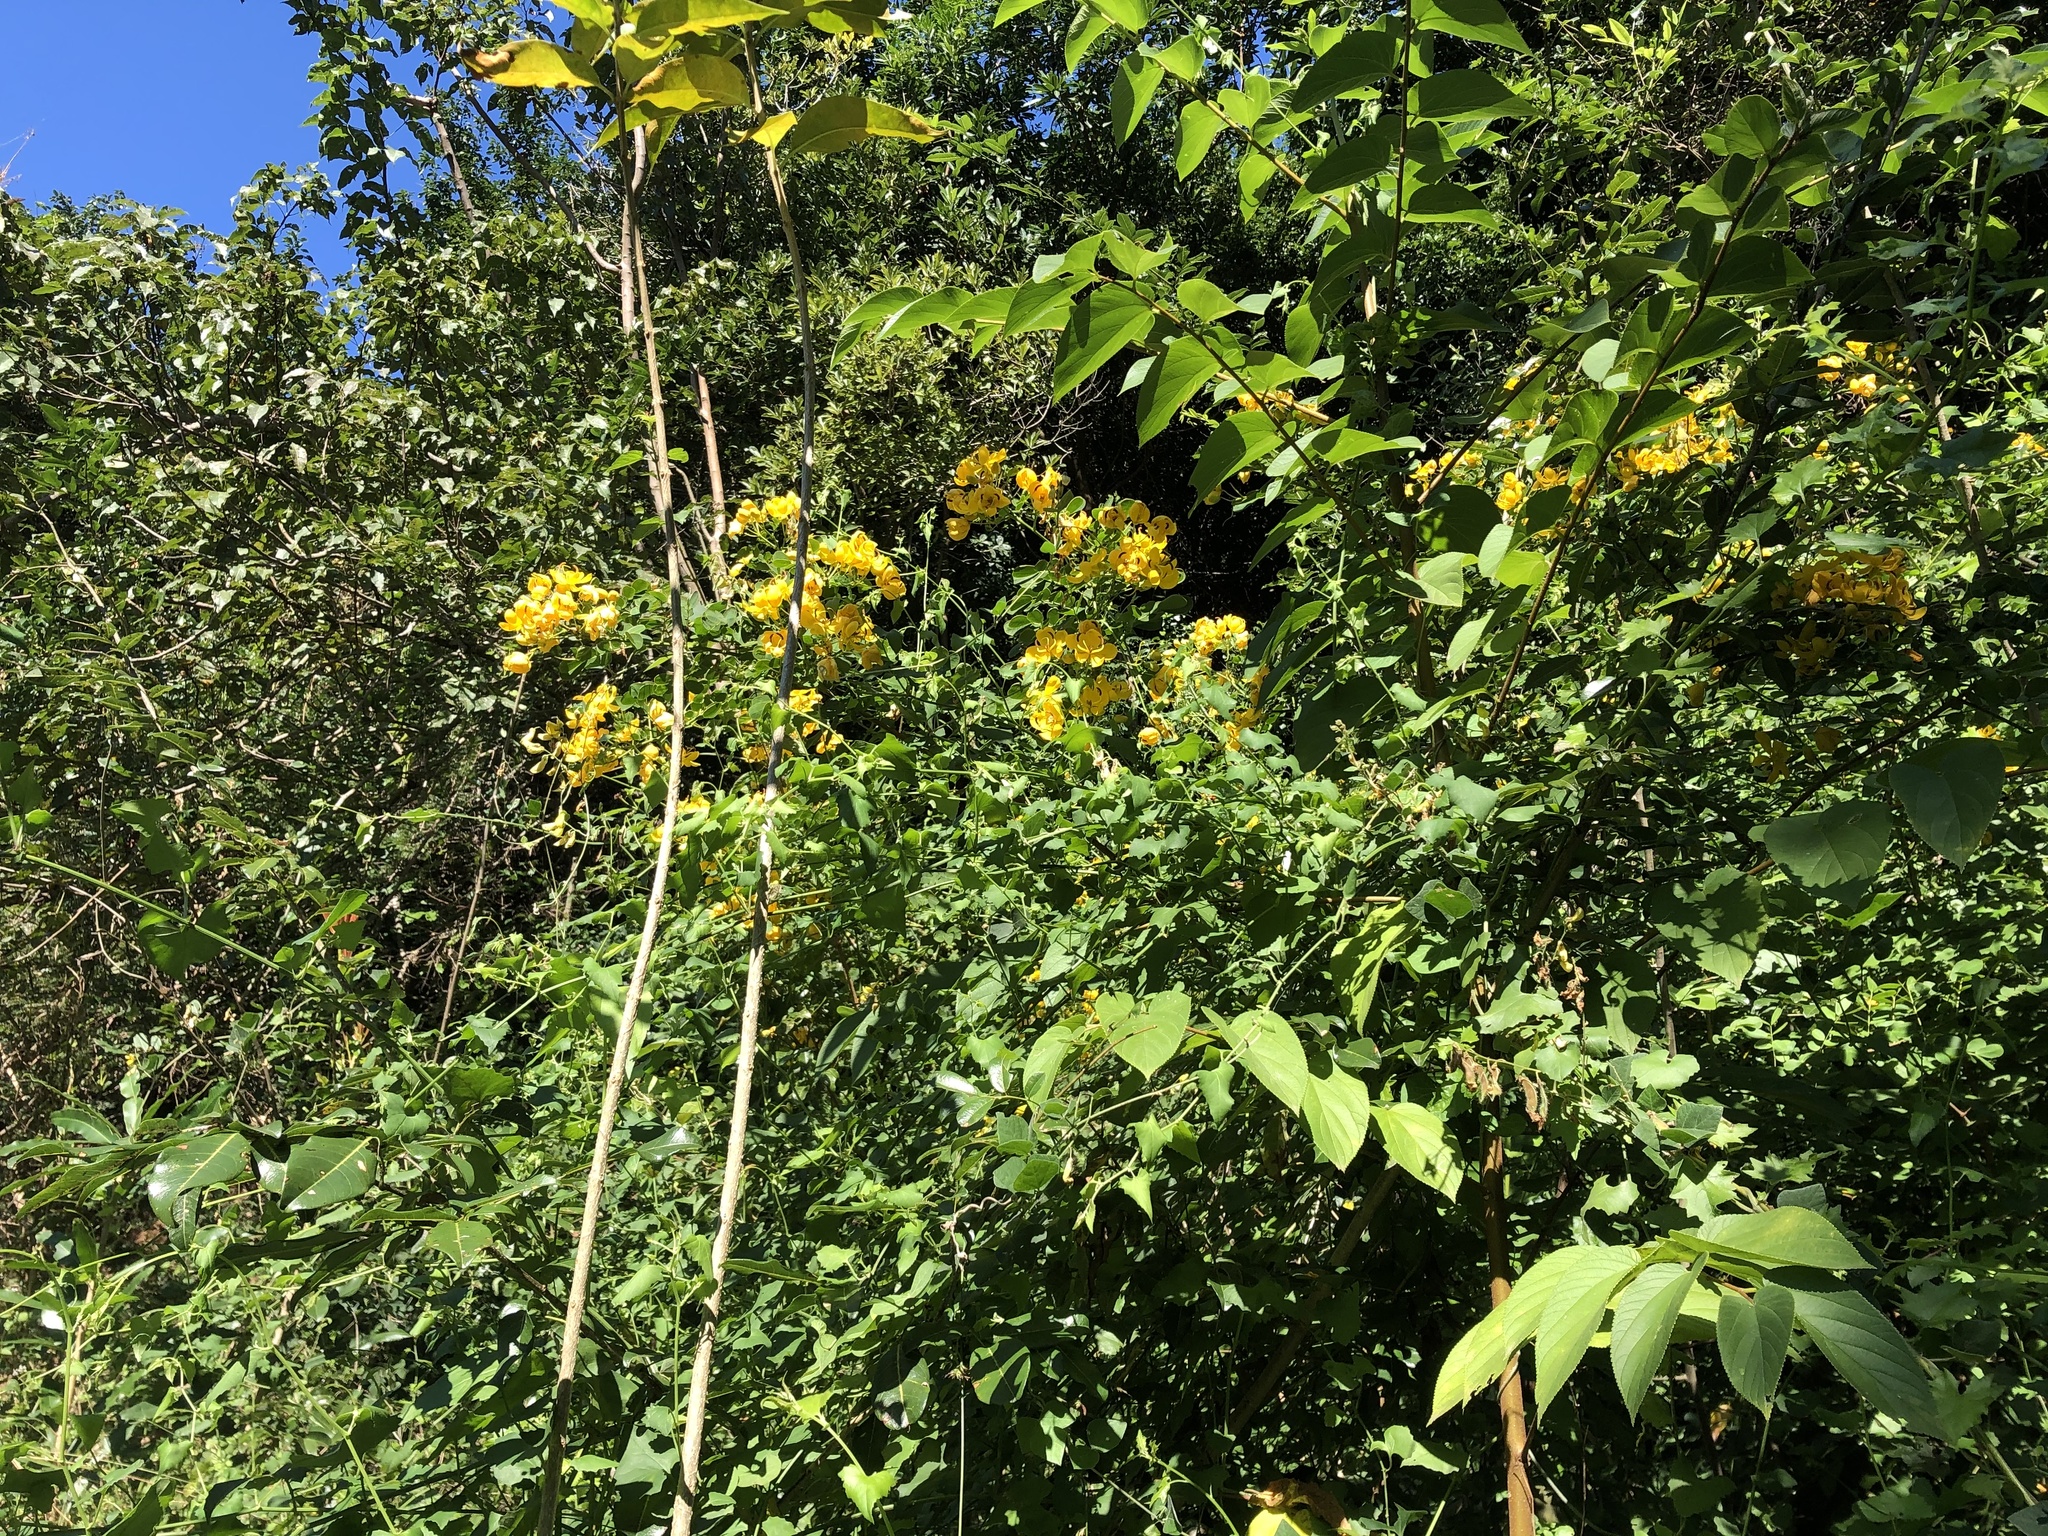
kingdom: Plantae
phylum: Tracheophyta
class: Magnoliopsida
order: Fabales
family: Fabaceae
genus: Senna
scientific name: Senna pendula
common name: Easter cassia
